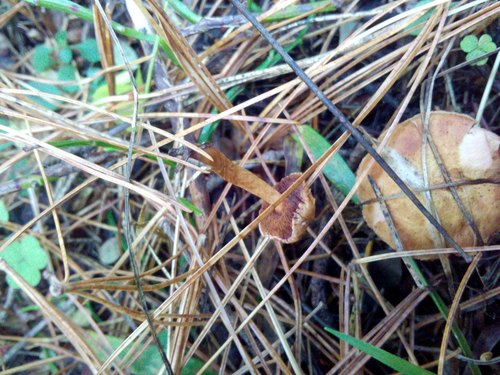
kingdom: Fungi
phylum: Basidiomycota
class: Agaricomycetes
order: Boletales
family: Boletaceae
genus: Chalciporus
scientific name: Chalciporus piperatus
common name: Peppery bolete
